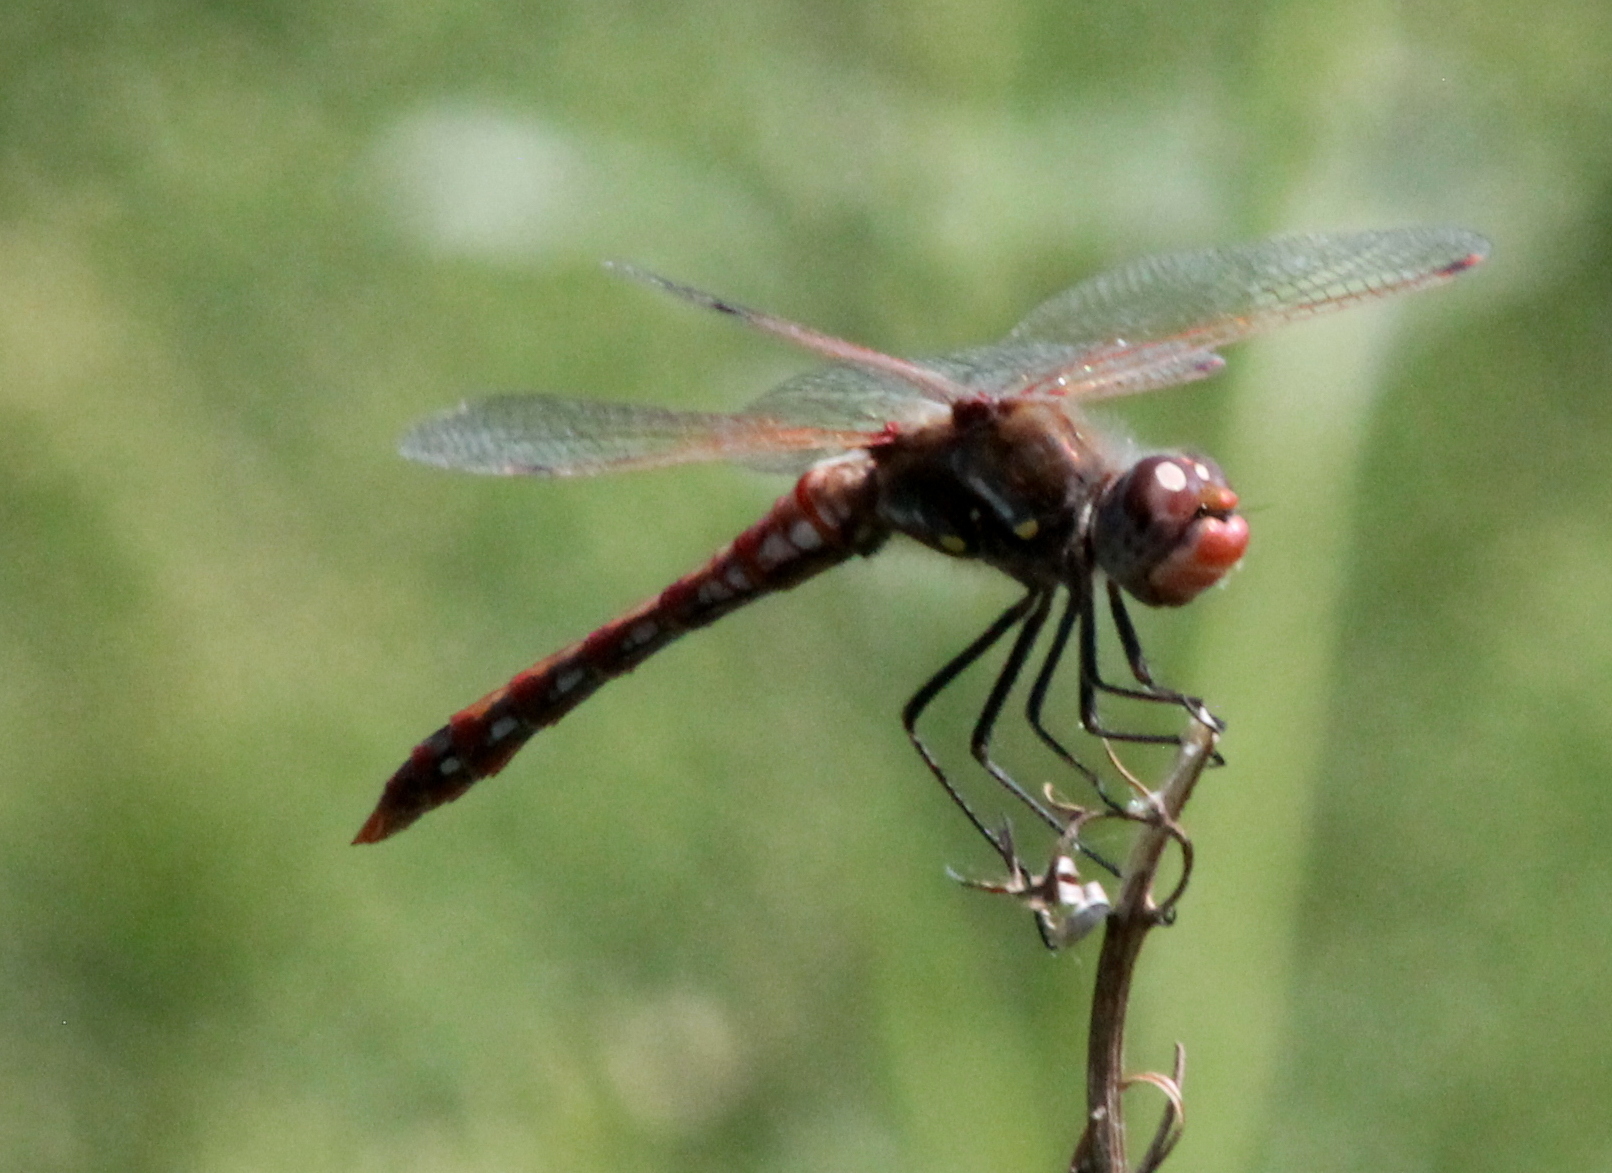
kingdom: Animalia
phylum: Arthropoda
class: Insecta
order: Odonata
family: Libellulidae
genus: Sympetrum
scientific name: Sympetrum corruptum
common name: Variegated meadowhawk
